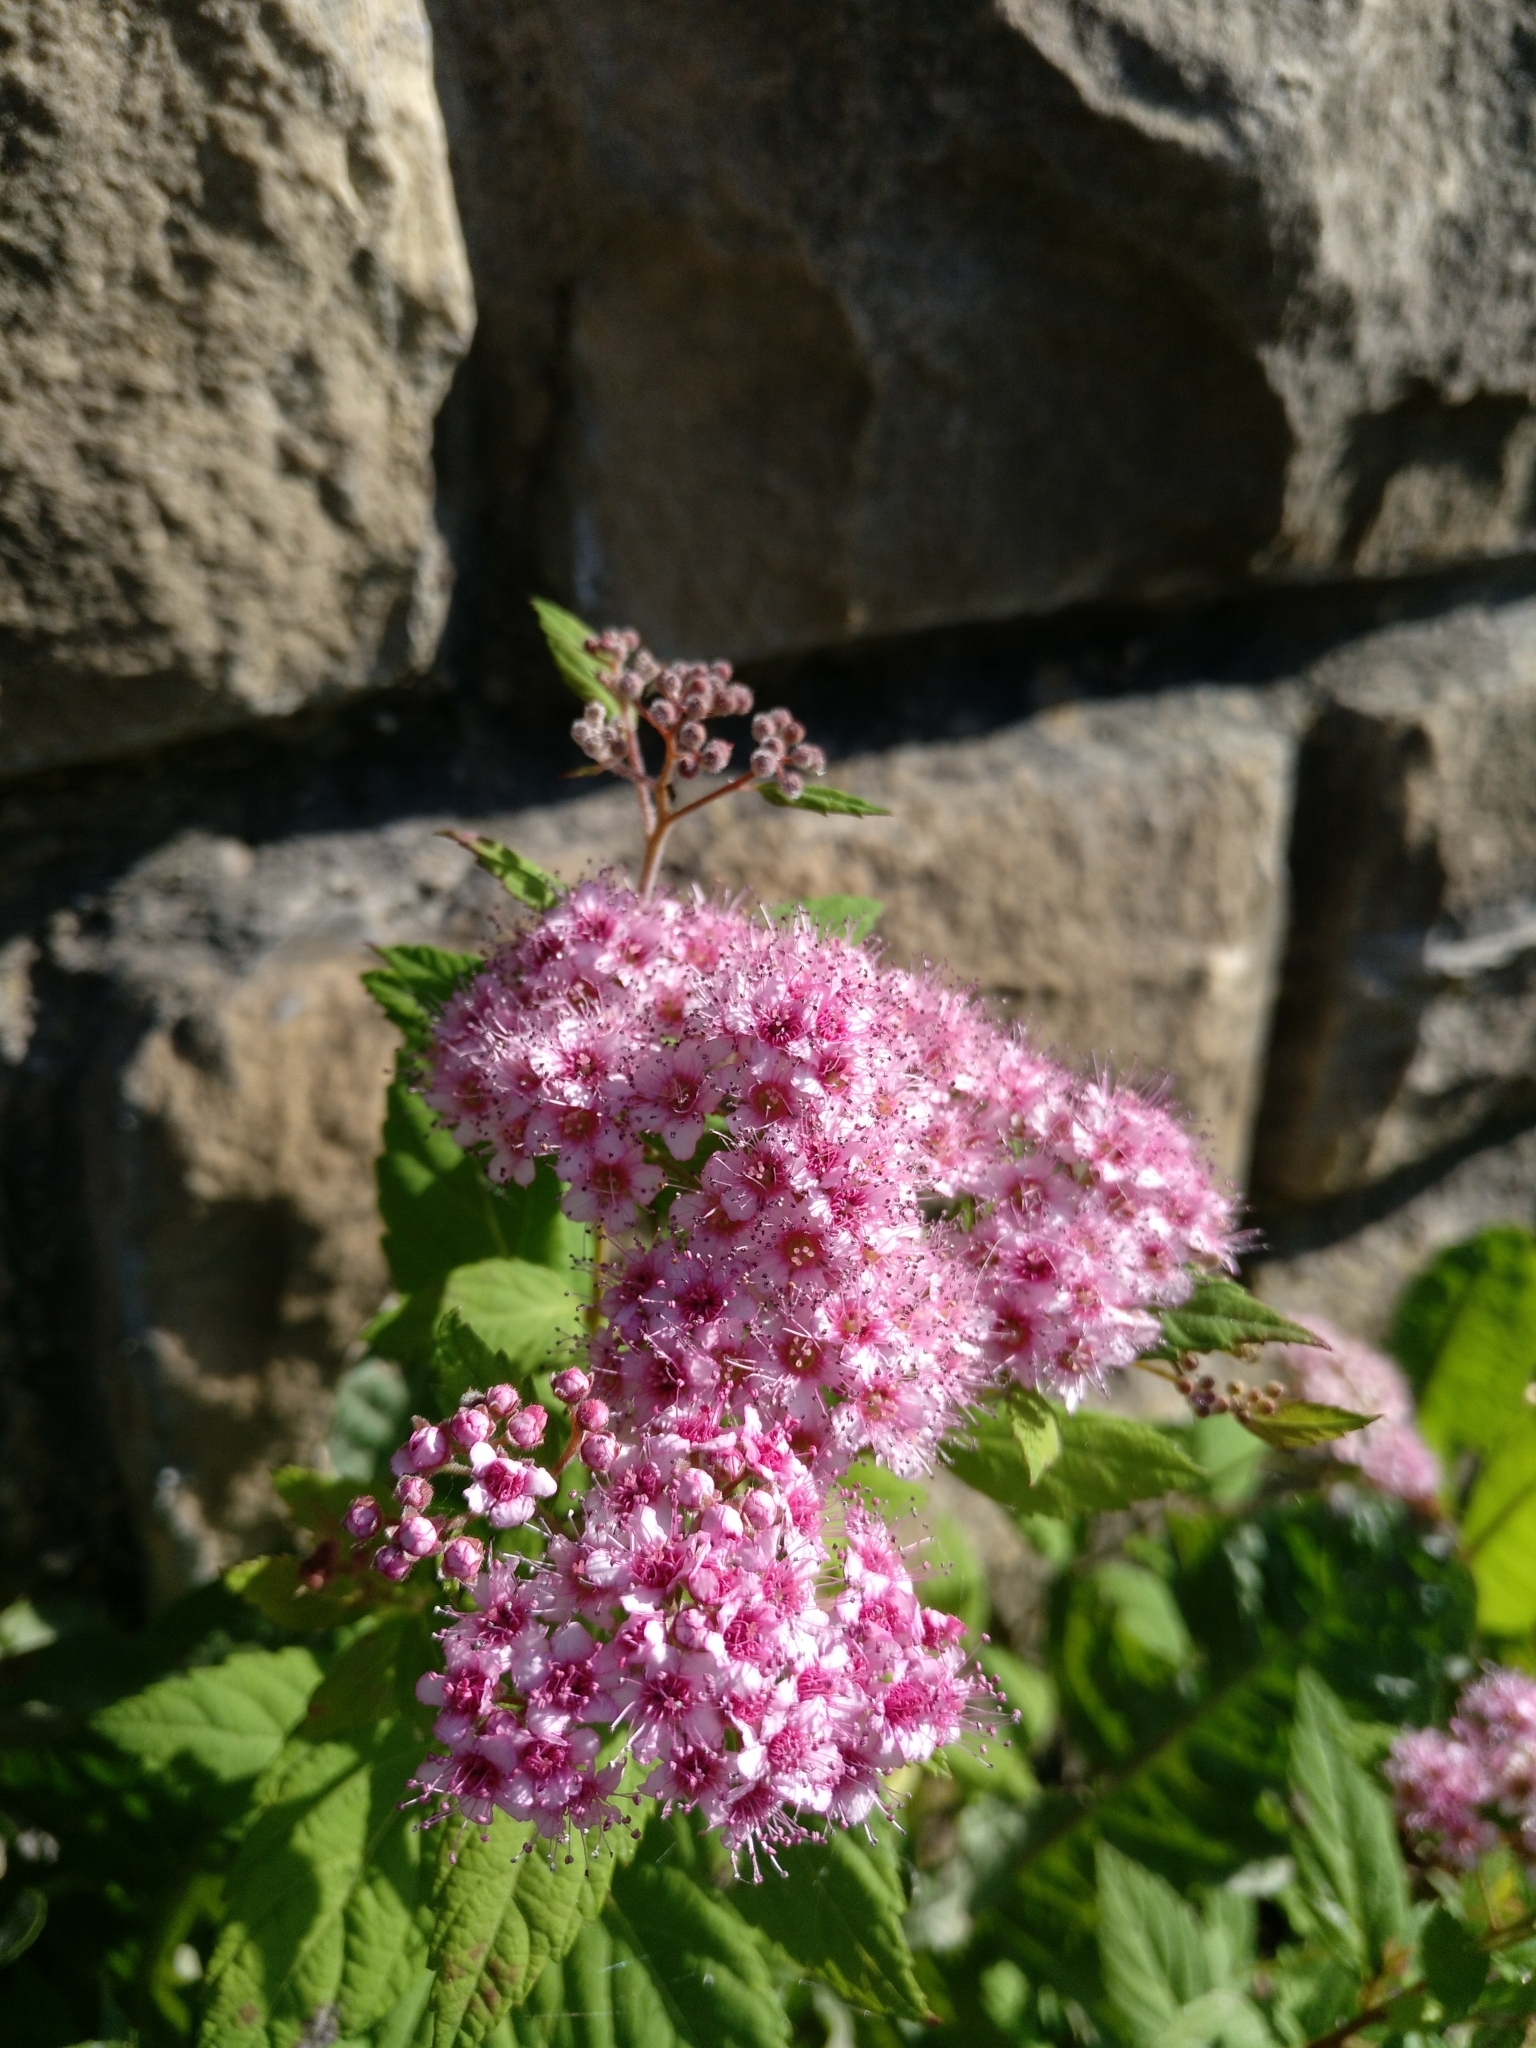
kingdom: Plantae
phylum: Tracheophyta
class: Magnoliopsida
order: Rosales
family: Rosaceae
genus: Spiraea
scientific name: Spiraea japonica
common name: Japanese spiraea
